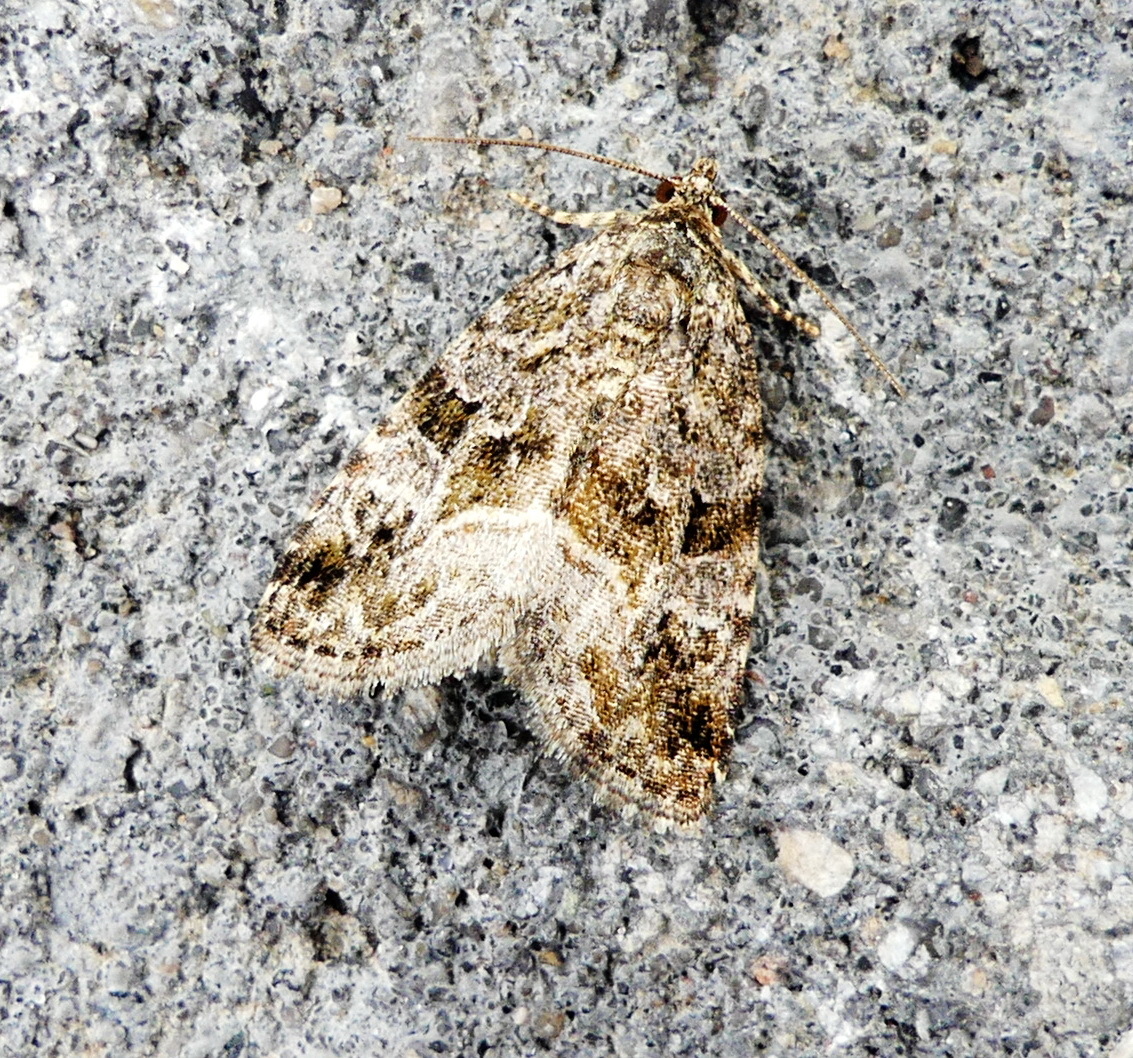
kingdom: Animalia
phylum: Arthropoda
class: Insecta
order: Lepidoptera
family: Noctuidae
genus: Protodeltote
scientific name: Protodeltote muscosula
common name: Large mossy glyph
